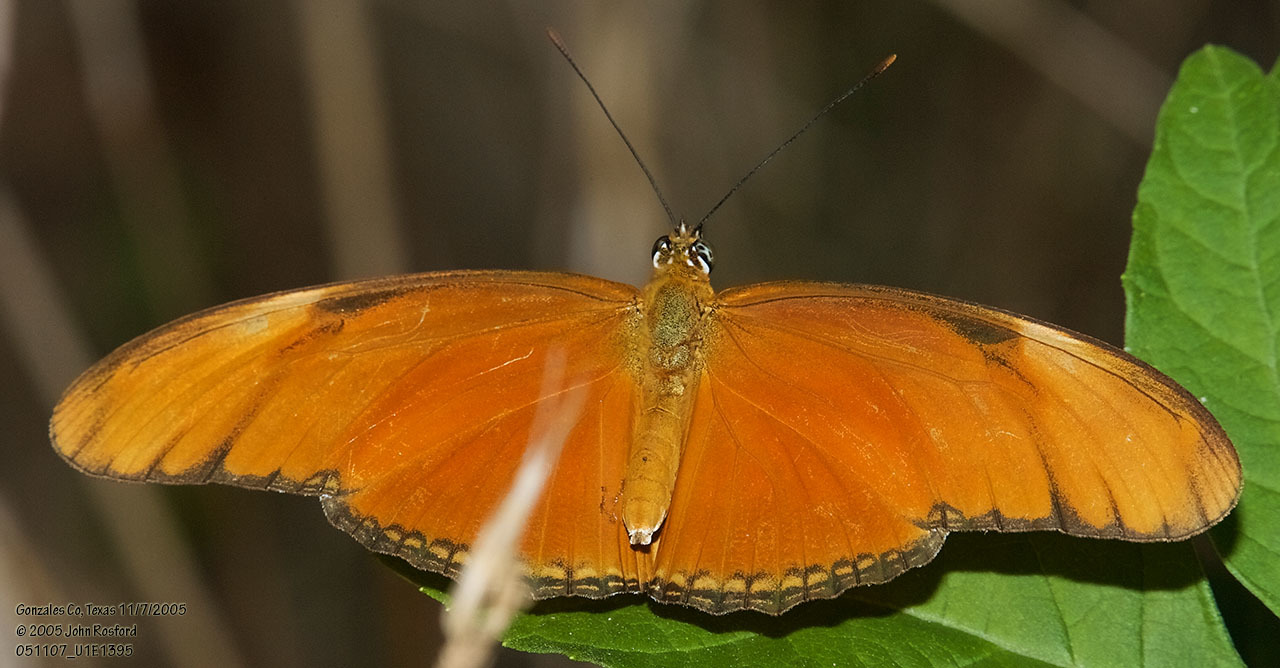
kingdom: Animalia
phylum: Arthropoda
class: Insecta
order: Lepidoptera
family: Nymphalidae
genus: Dryas
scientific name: Dryas iulia
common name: Flambeau
